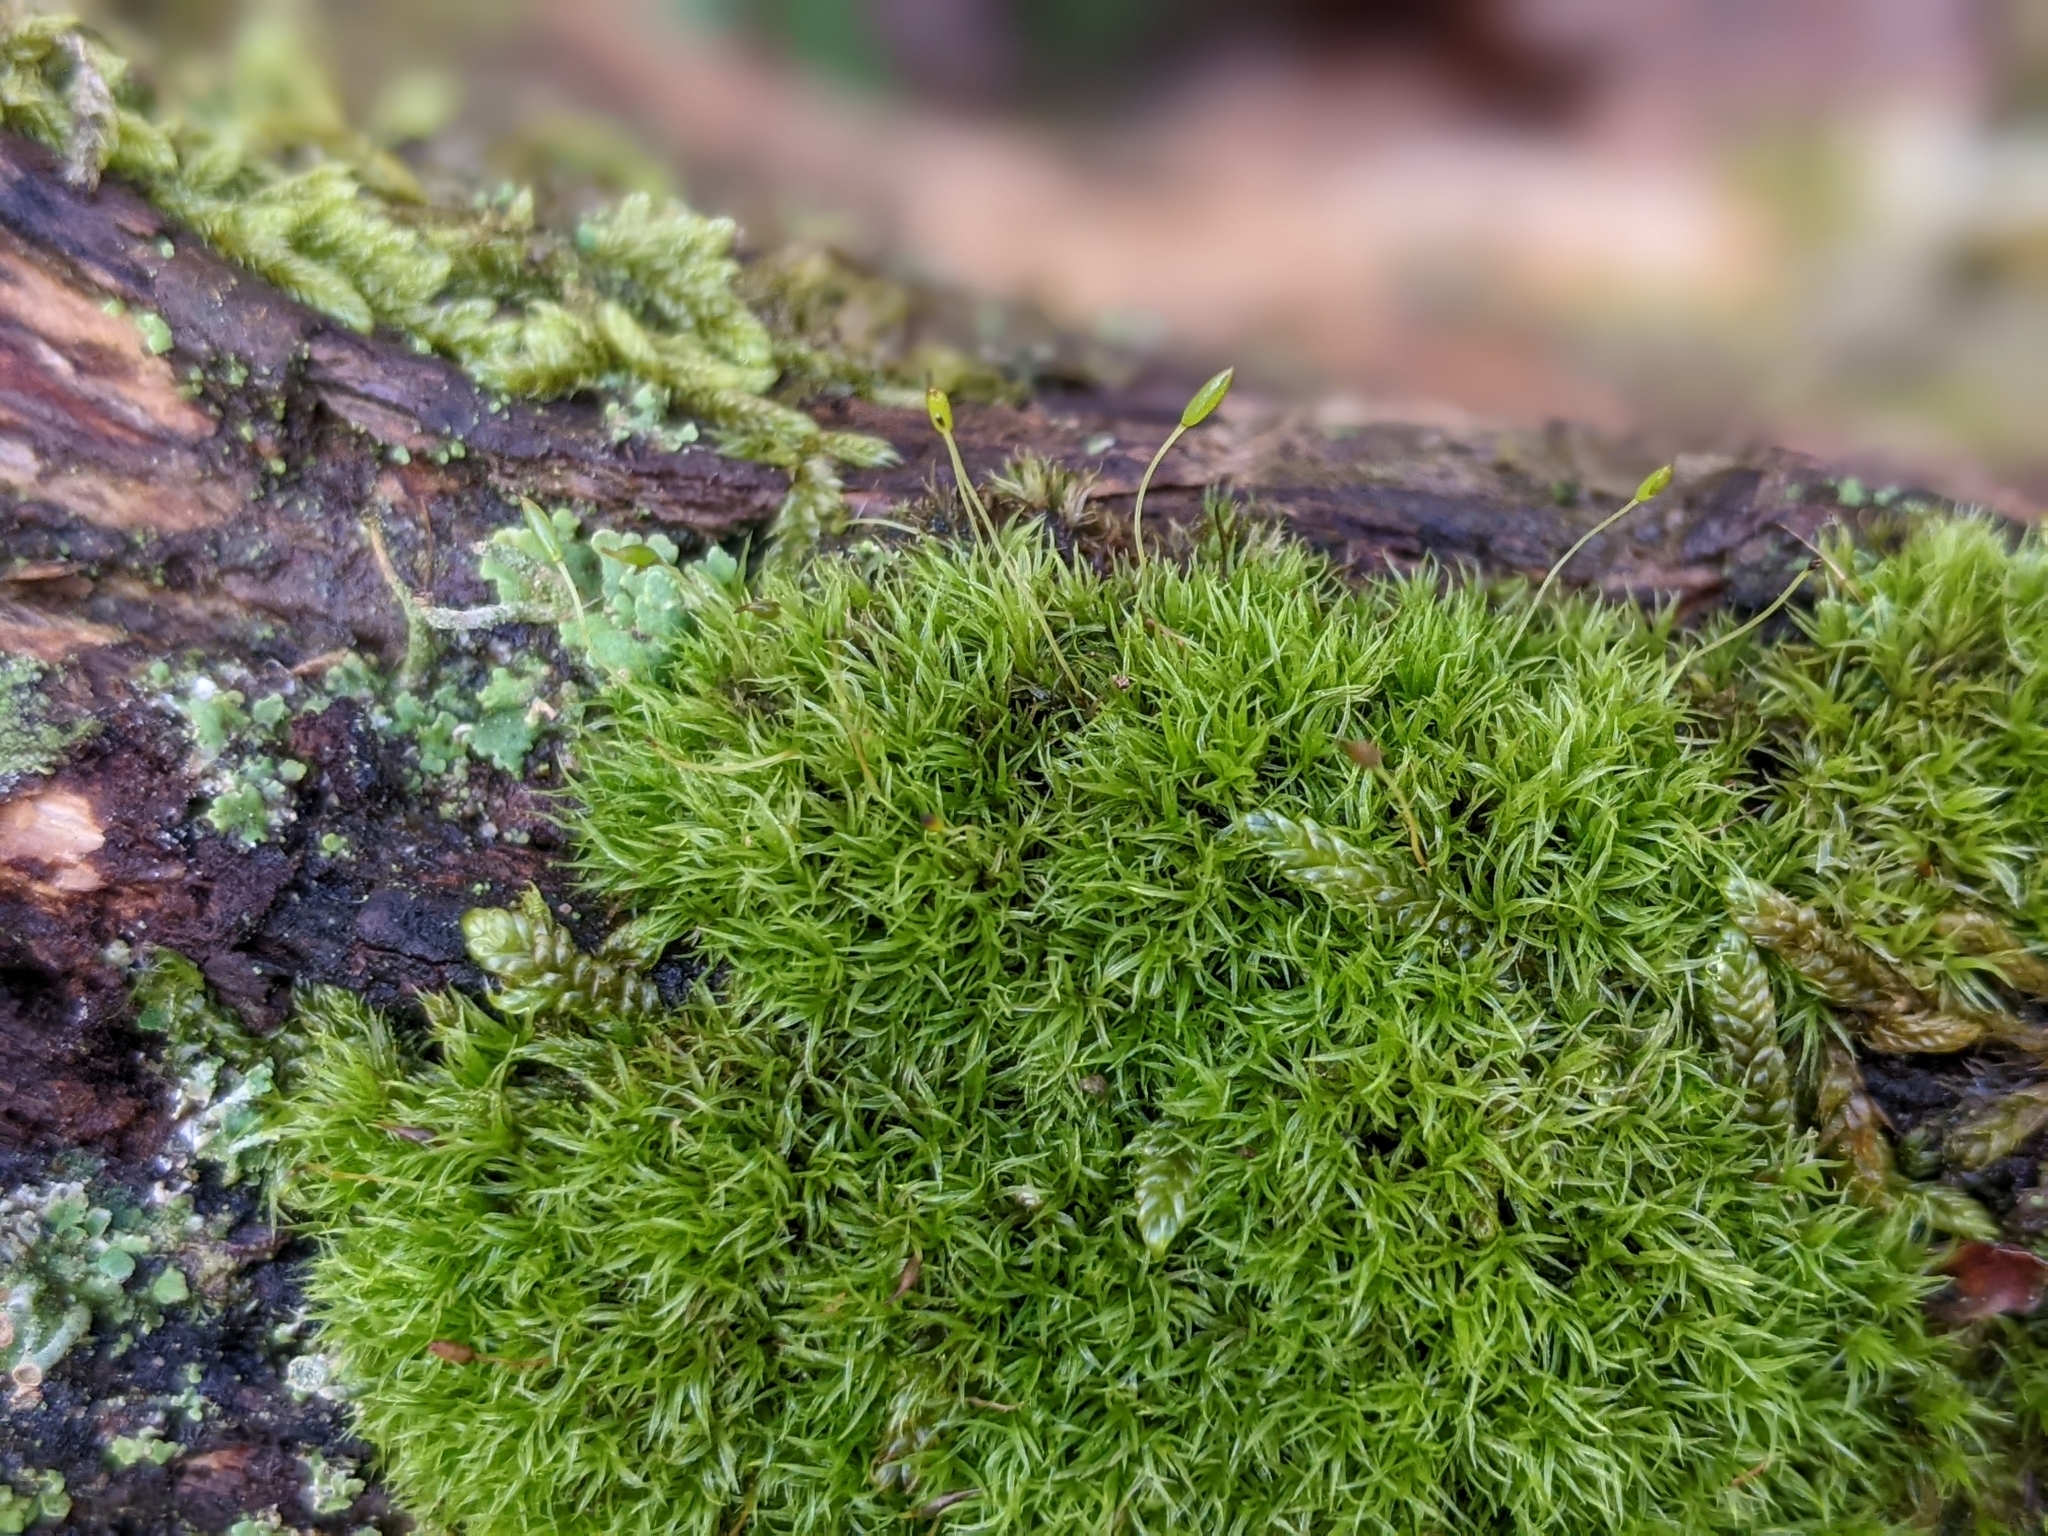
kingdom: Plantae
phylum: Bryophyta
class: Bryopsida
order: Dicranales
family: Rhabdoweisiaceae
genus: Dicranoweisia
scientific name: Dicranoweisia cirrata
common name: Common pincushion
